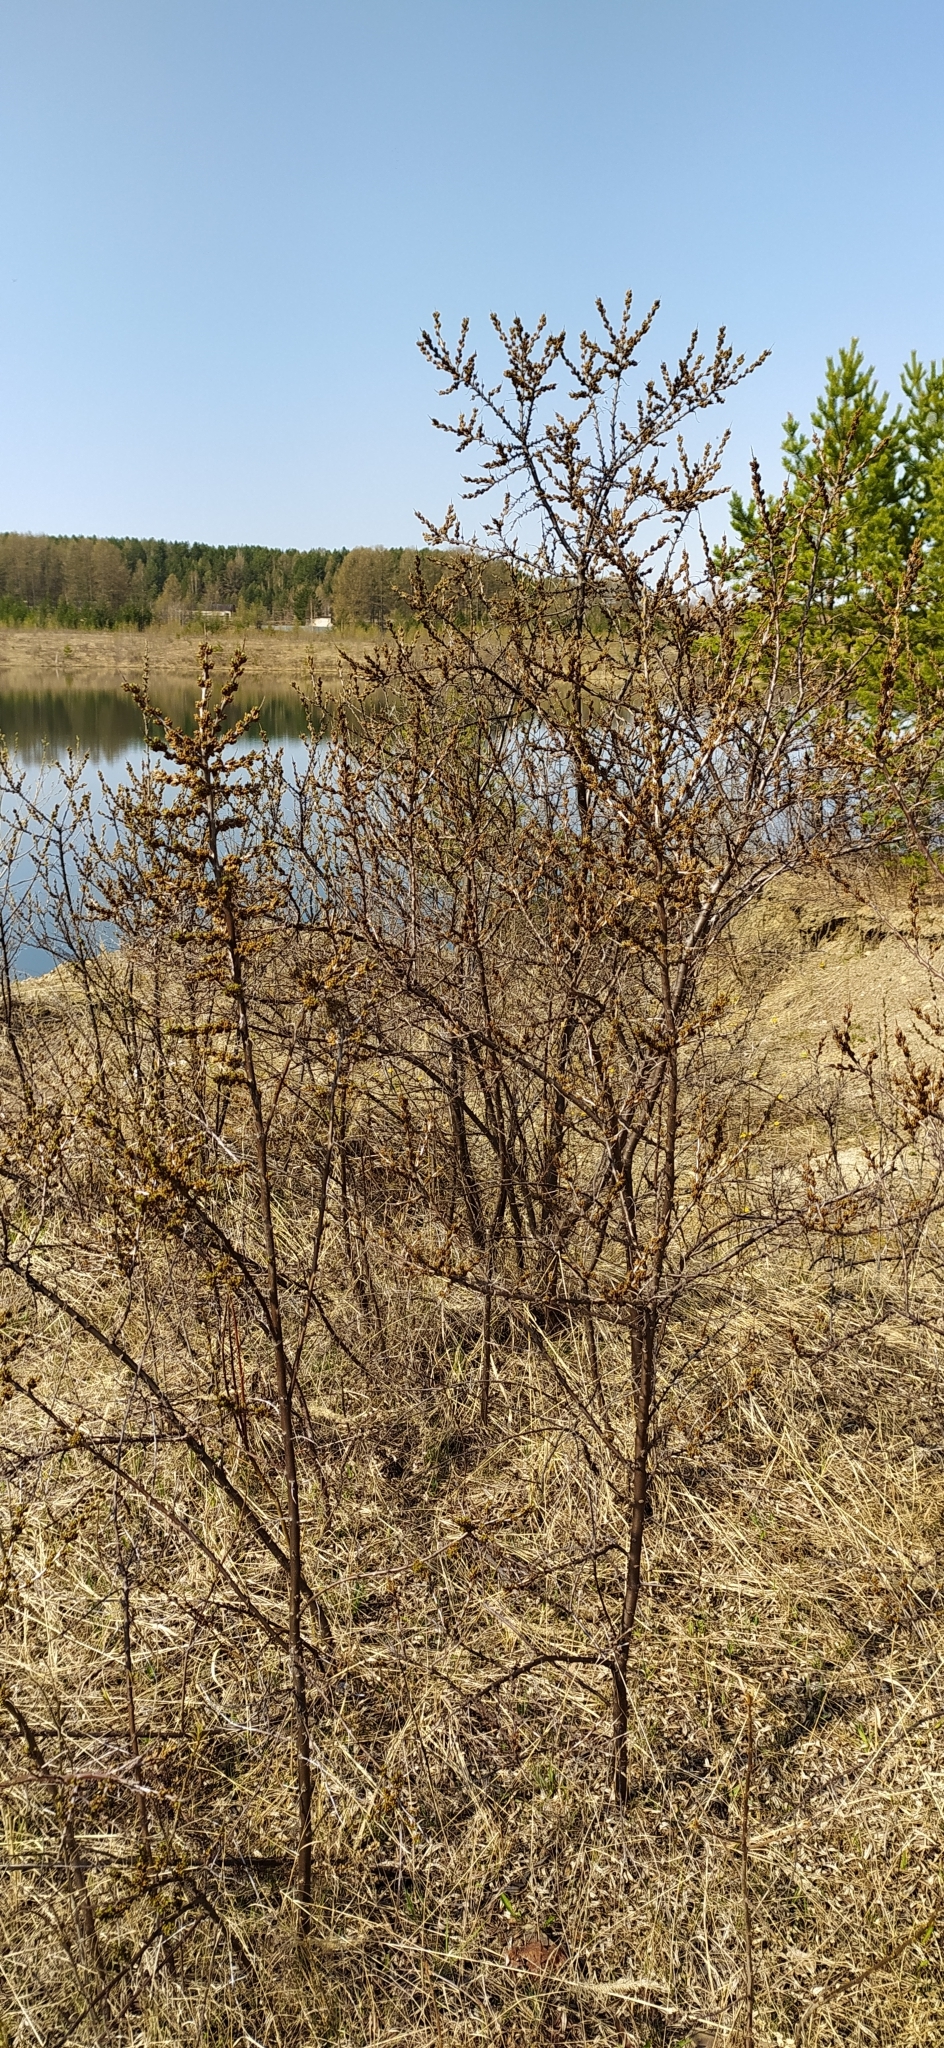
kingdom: Plantae
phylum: Tracheophyta
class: Magnoliopsida
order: Rosales
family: Elaeagnaceae
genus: Hippophae
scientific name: Hippophae rhamnoides
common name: Sea-buckthorn
